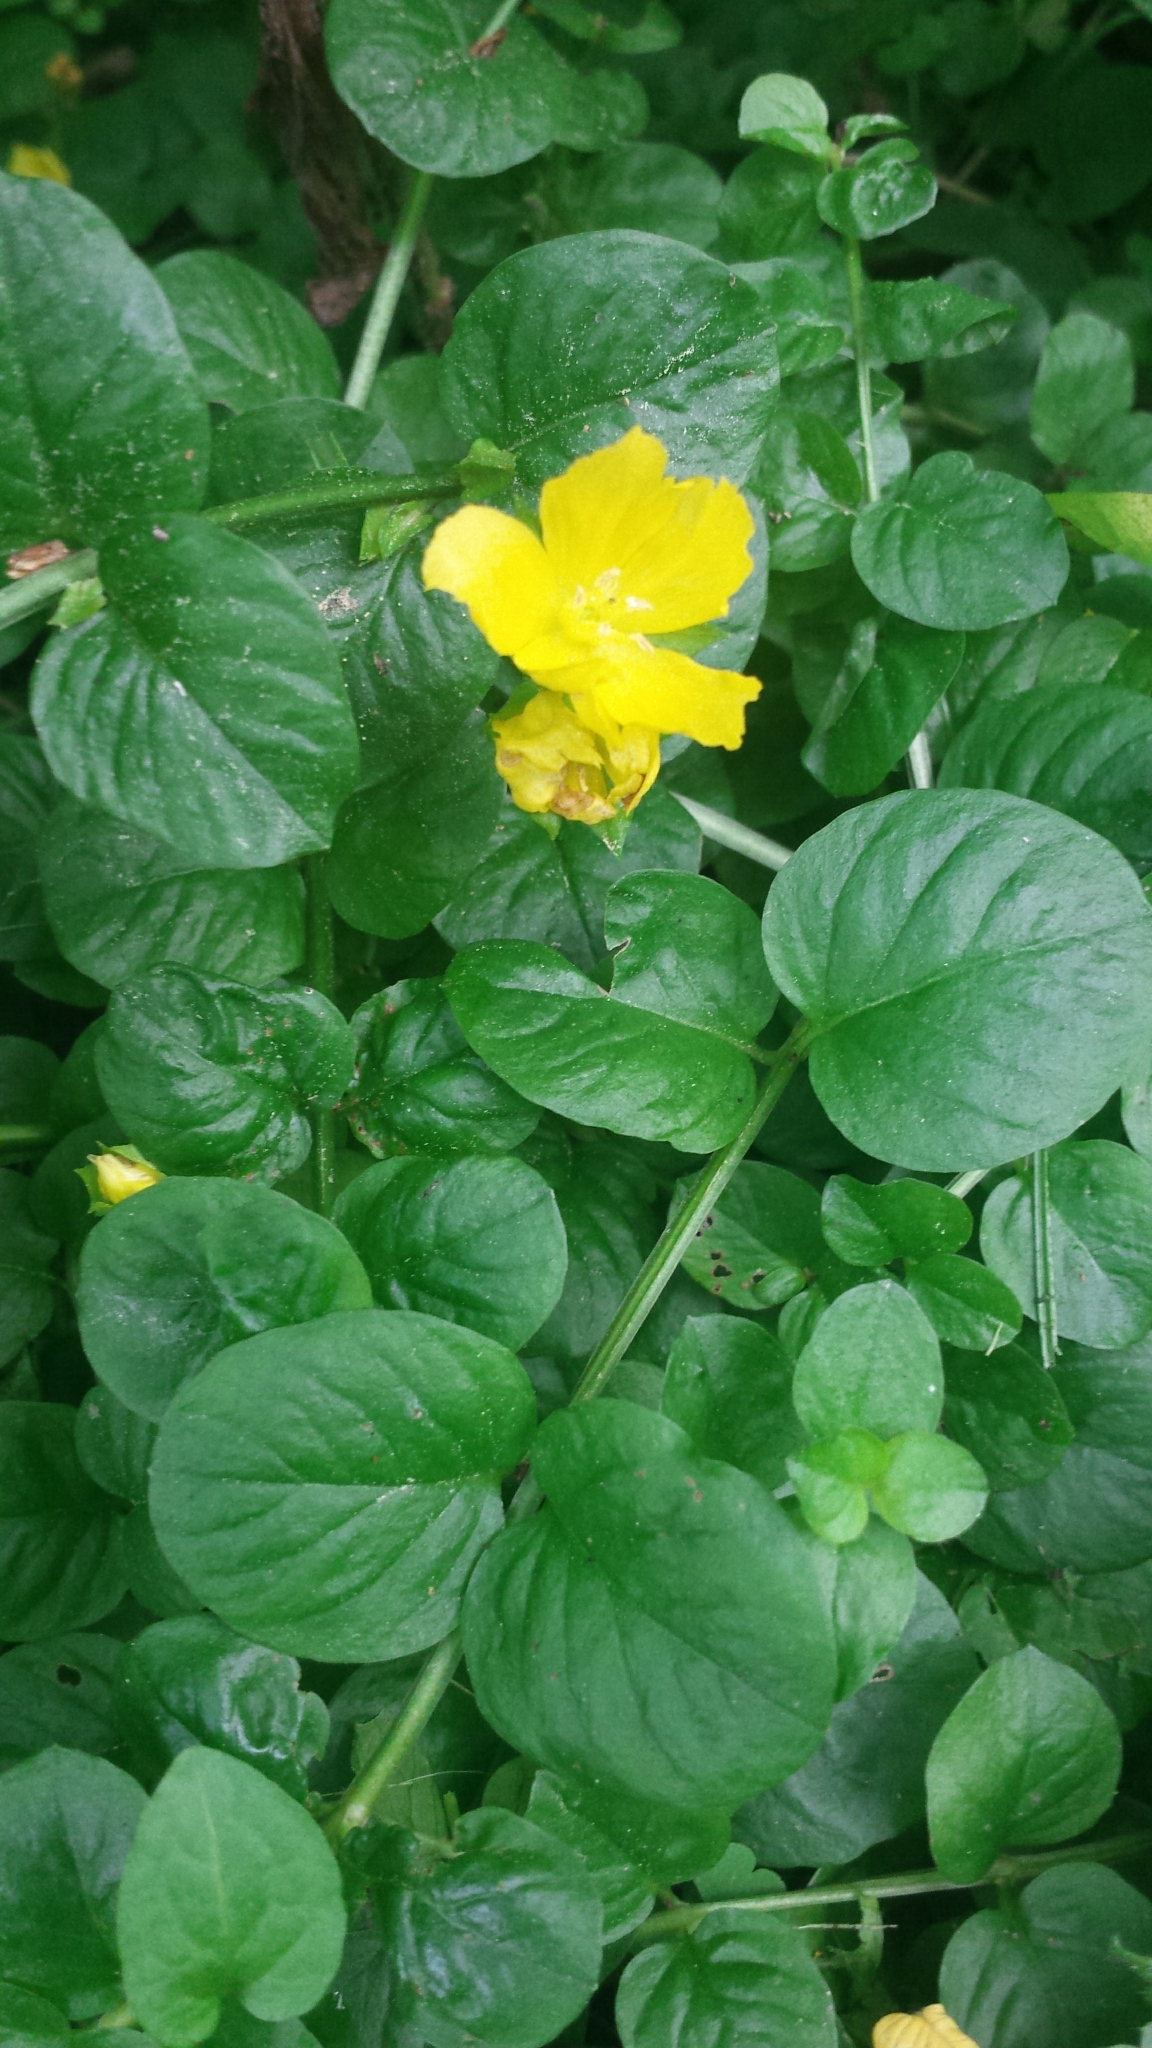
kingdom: Plantae
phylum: Tracheophyta
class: Magnoliopsida
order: Ericales
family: Primulaceae
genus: Lysimachia
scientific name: Lysimachia nummularia
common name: Moneywort
